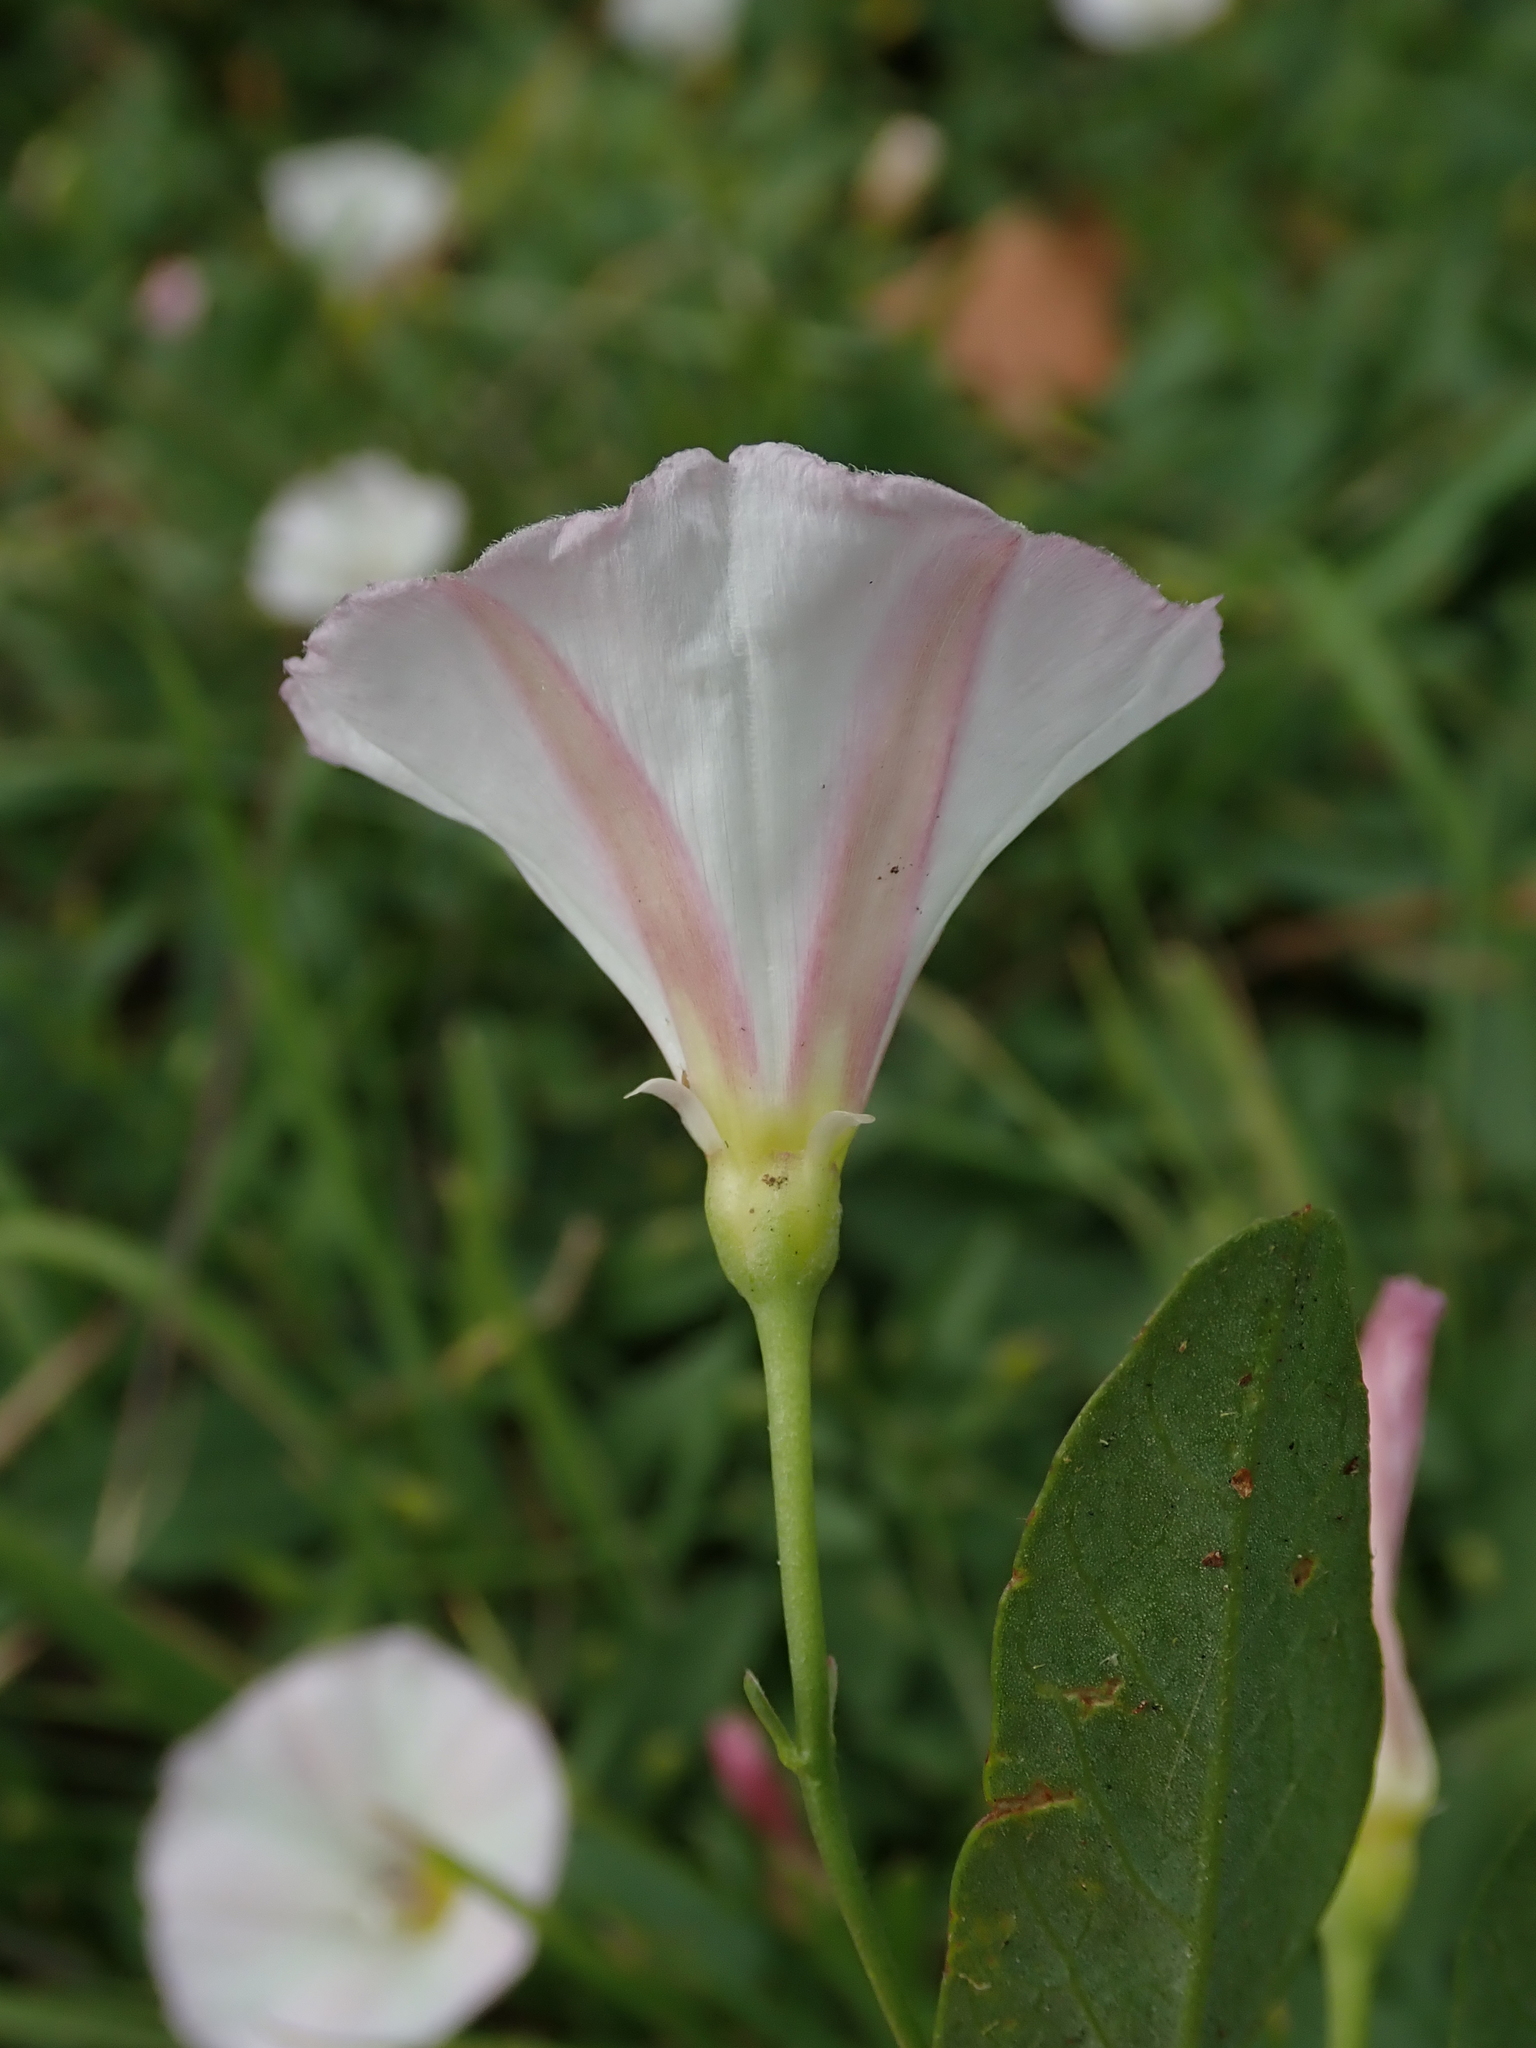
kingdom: Plantae
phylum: Tracheophyta
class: Magnoliopsida
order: Solanales
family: Convolvulaceae
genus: Convolvulus
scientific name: Convolvulus arvensis
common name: Field bindweed
